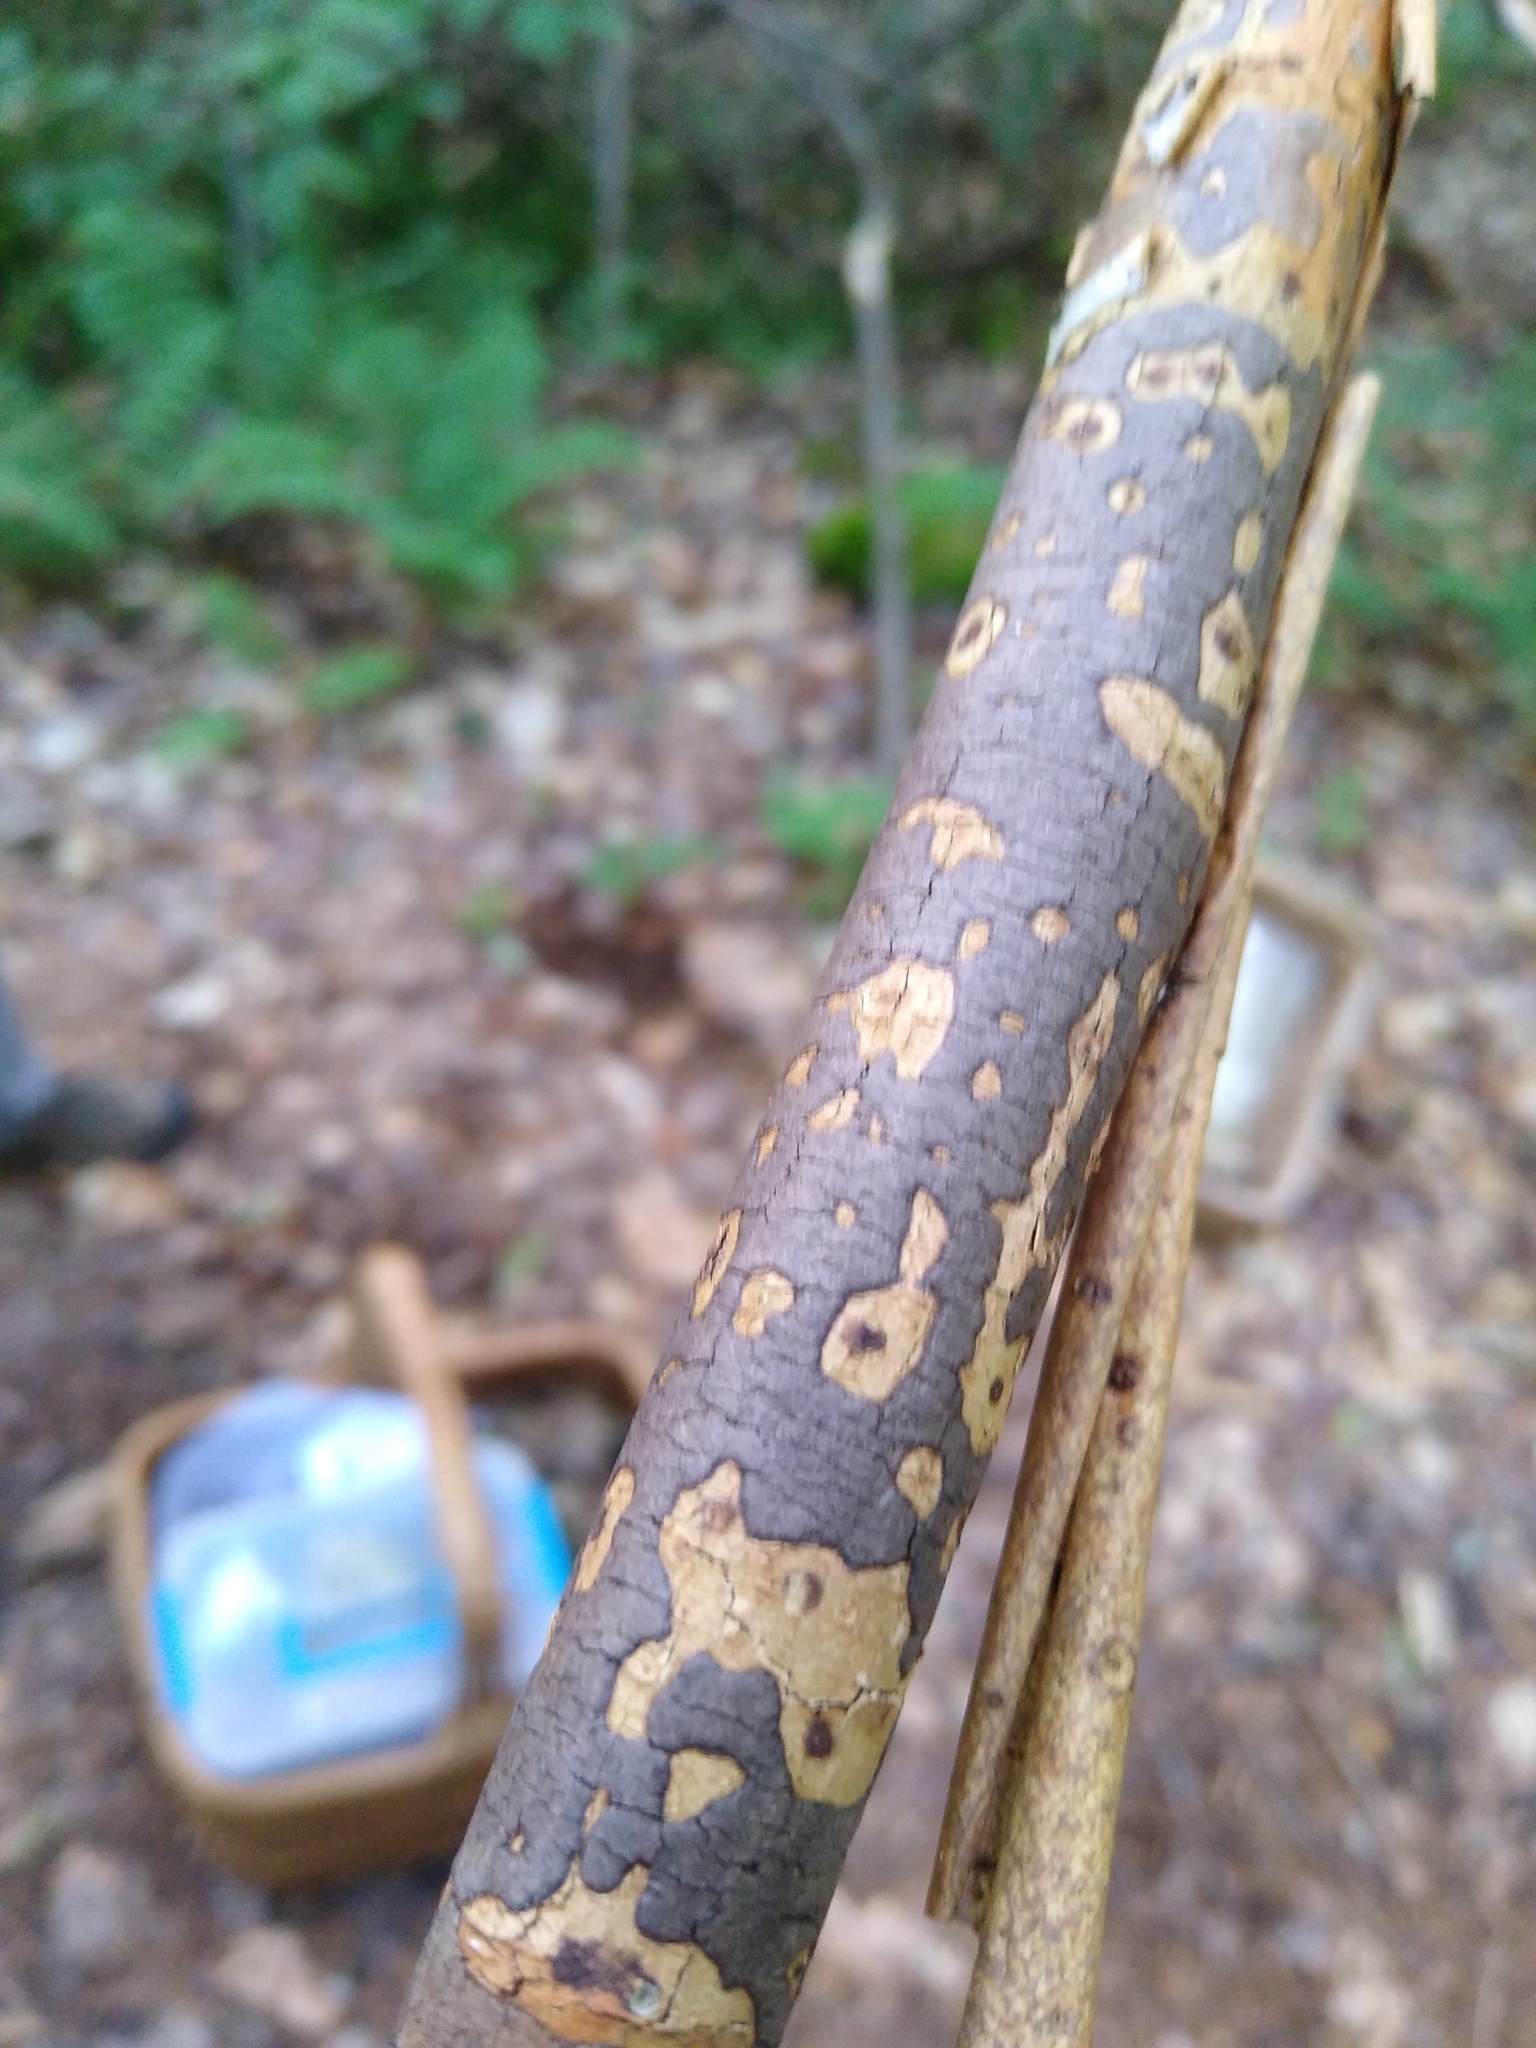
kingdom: Fungi
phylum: Ascomycota
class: Sordariomycetes
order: Xylariales
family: Diatrypaceae
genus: Diatrype
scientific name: Diatrype decorticata
